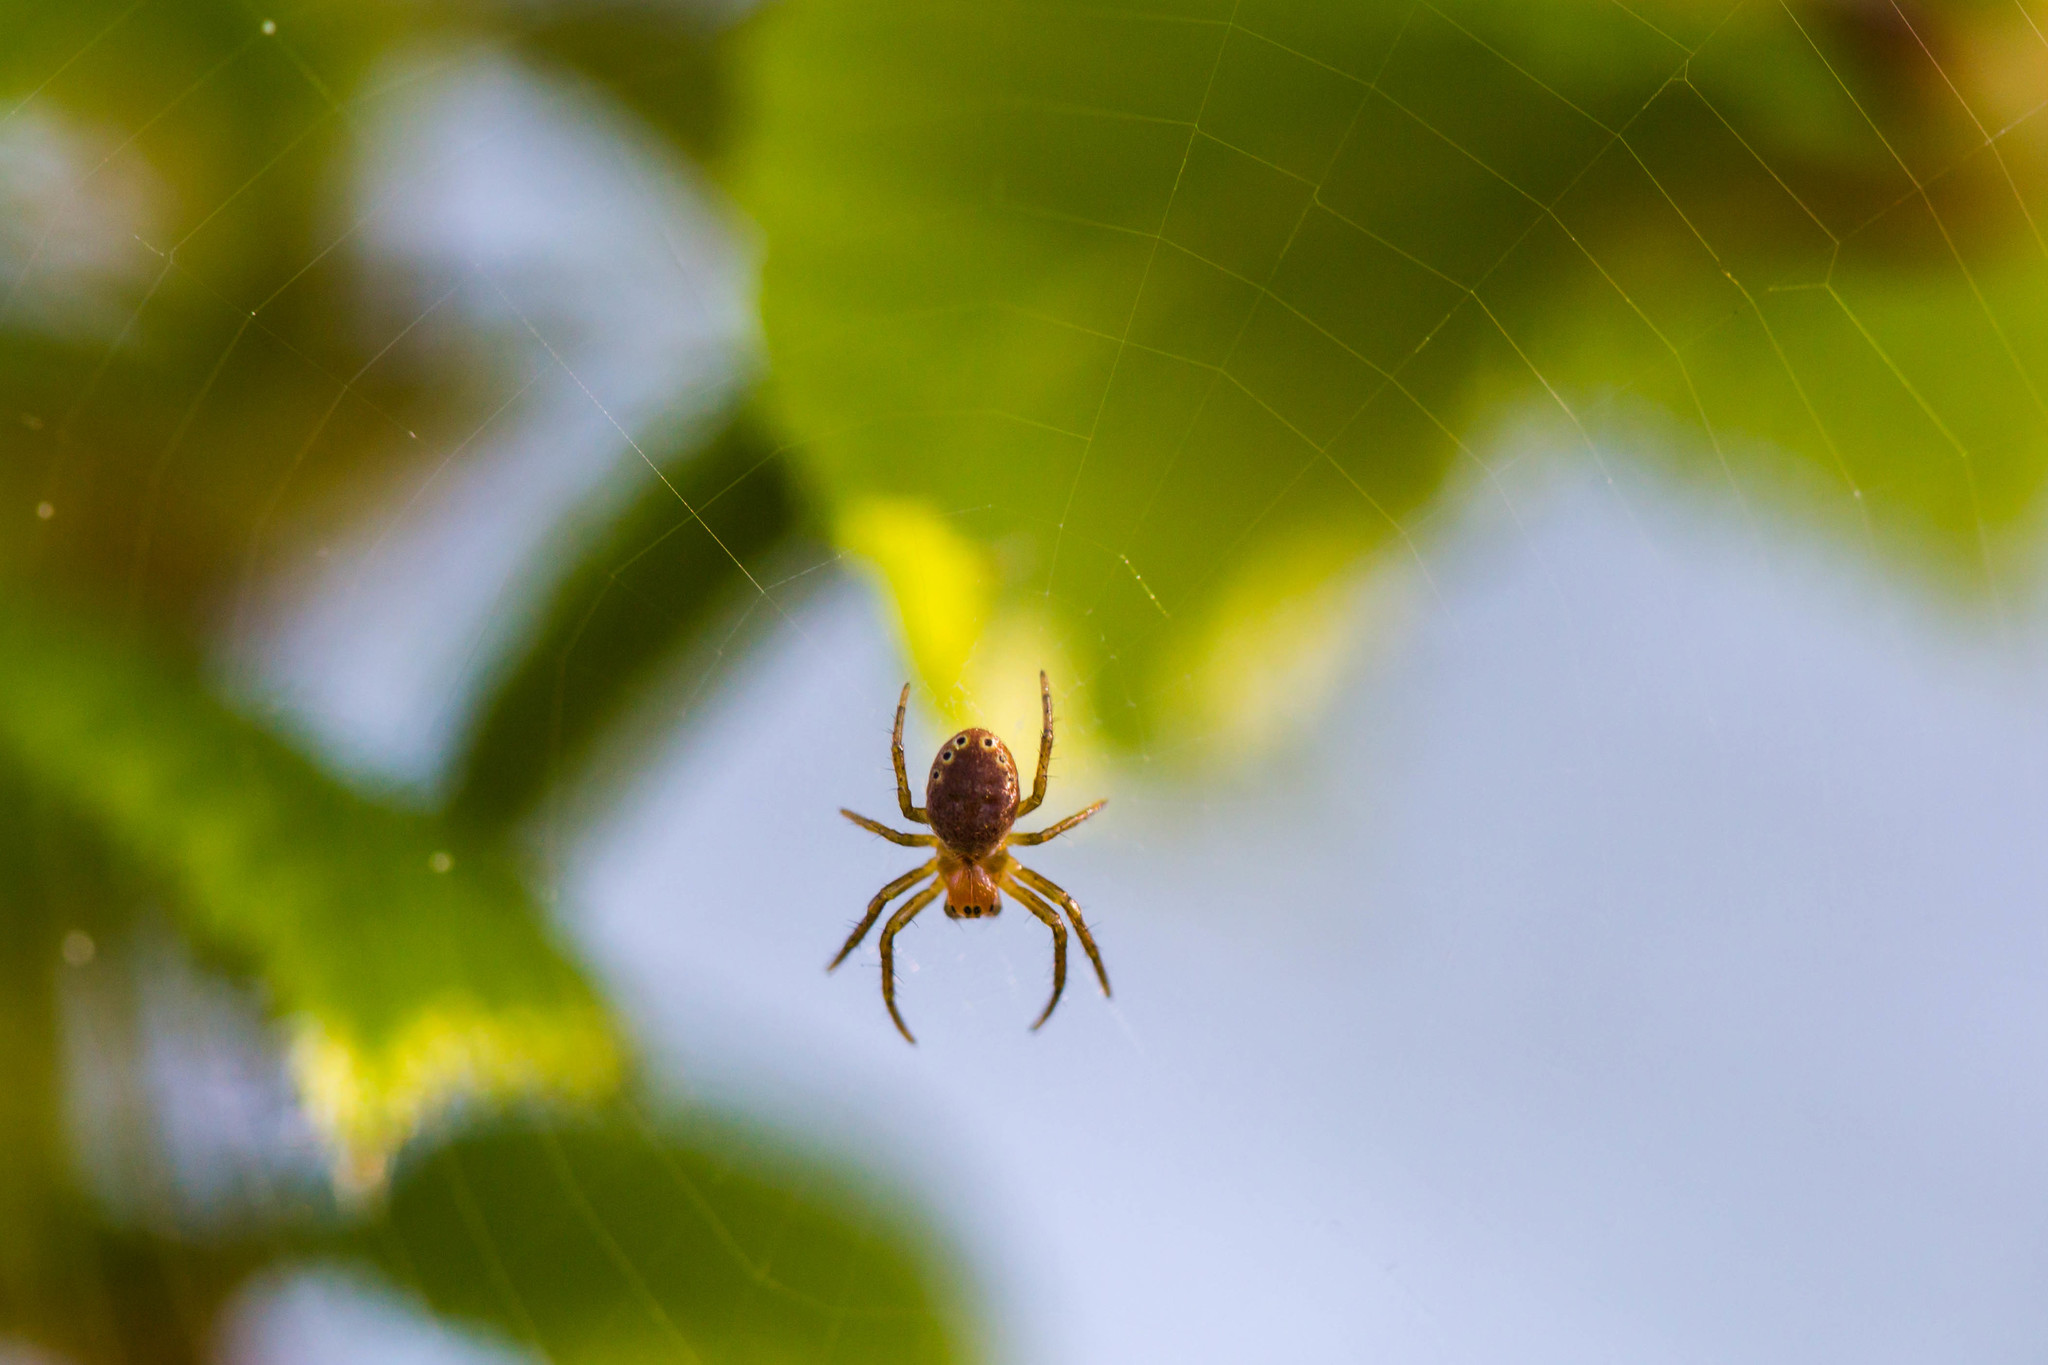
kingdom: Animalia
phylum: Arthropoda
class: Arachnida
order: Araneae
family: Araneidae
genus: Araniella
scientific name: Araniella displicata
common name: Sixspotted orb weaver
